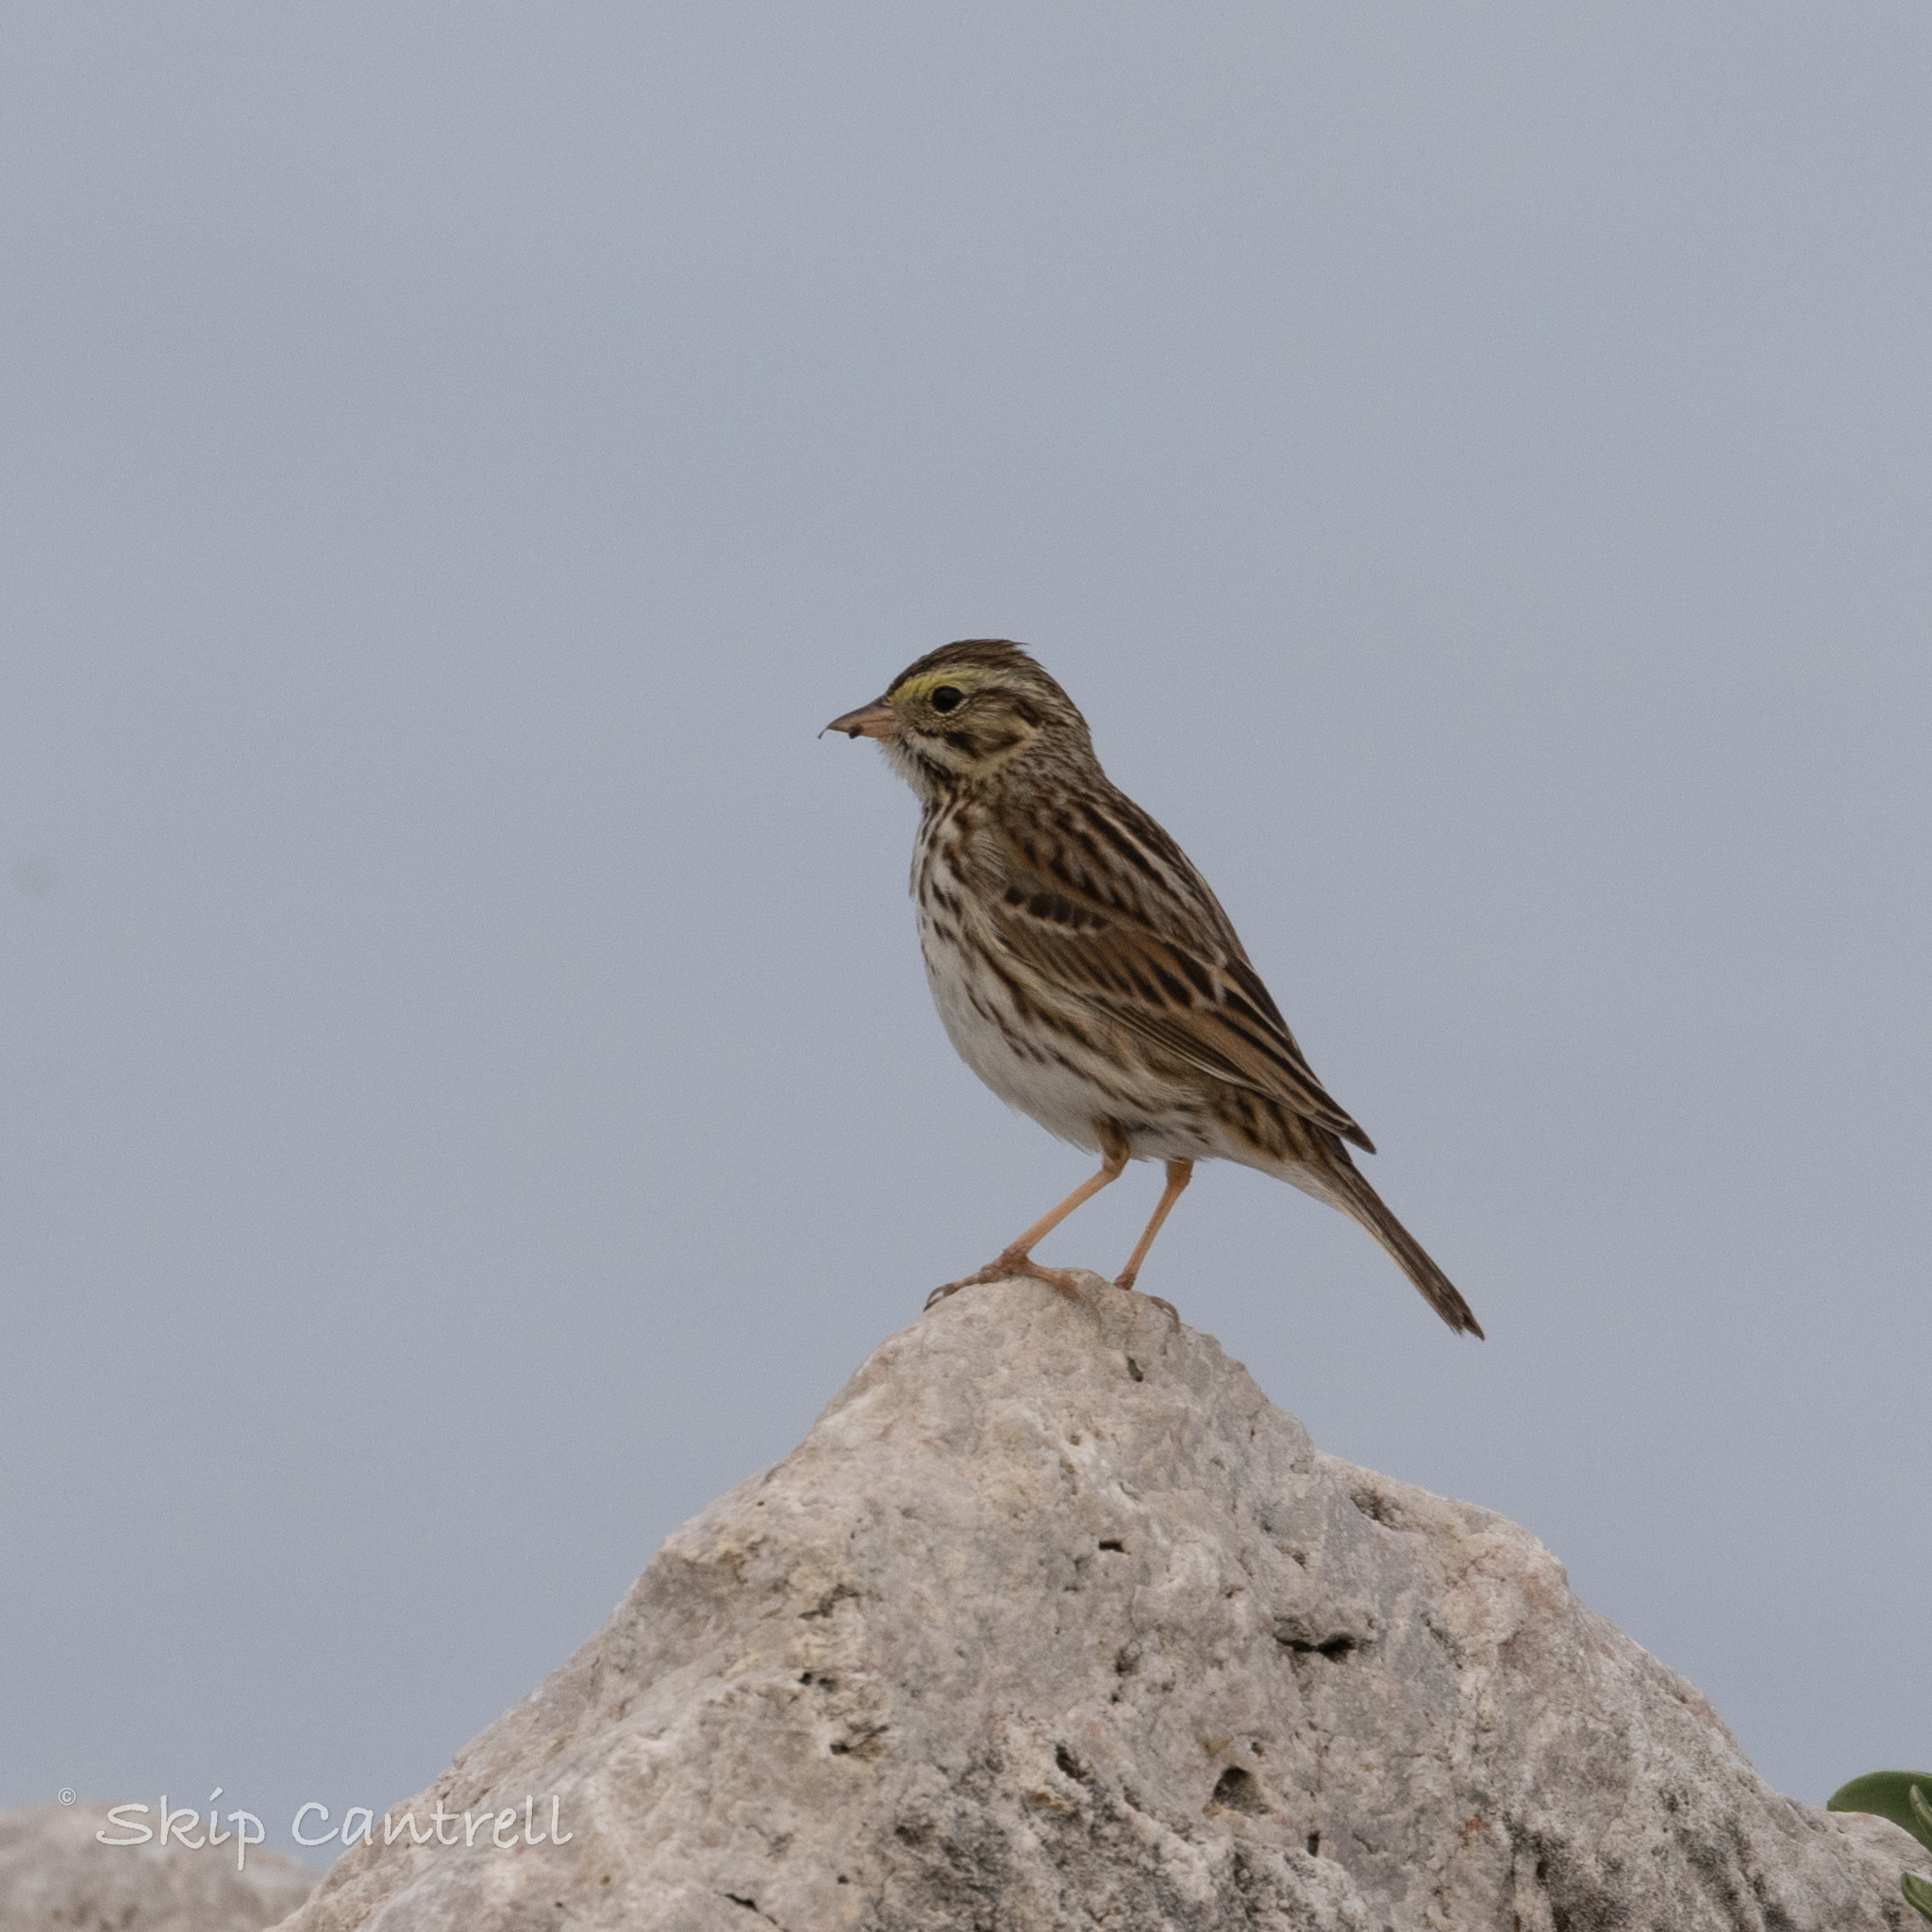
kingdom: Animalia
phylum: Chordata
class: Aves
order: Passeriformes
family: Passerellidae
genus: Passerculus
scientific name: Passerculus sandwichensis
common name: Savannah sparrow
